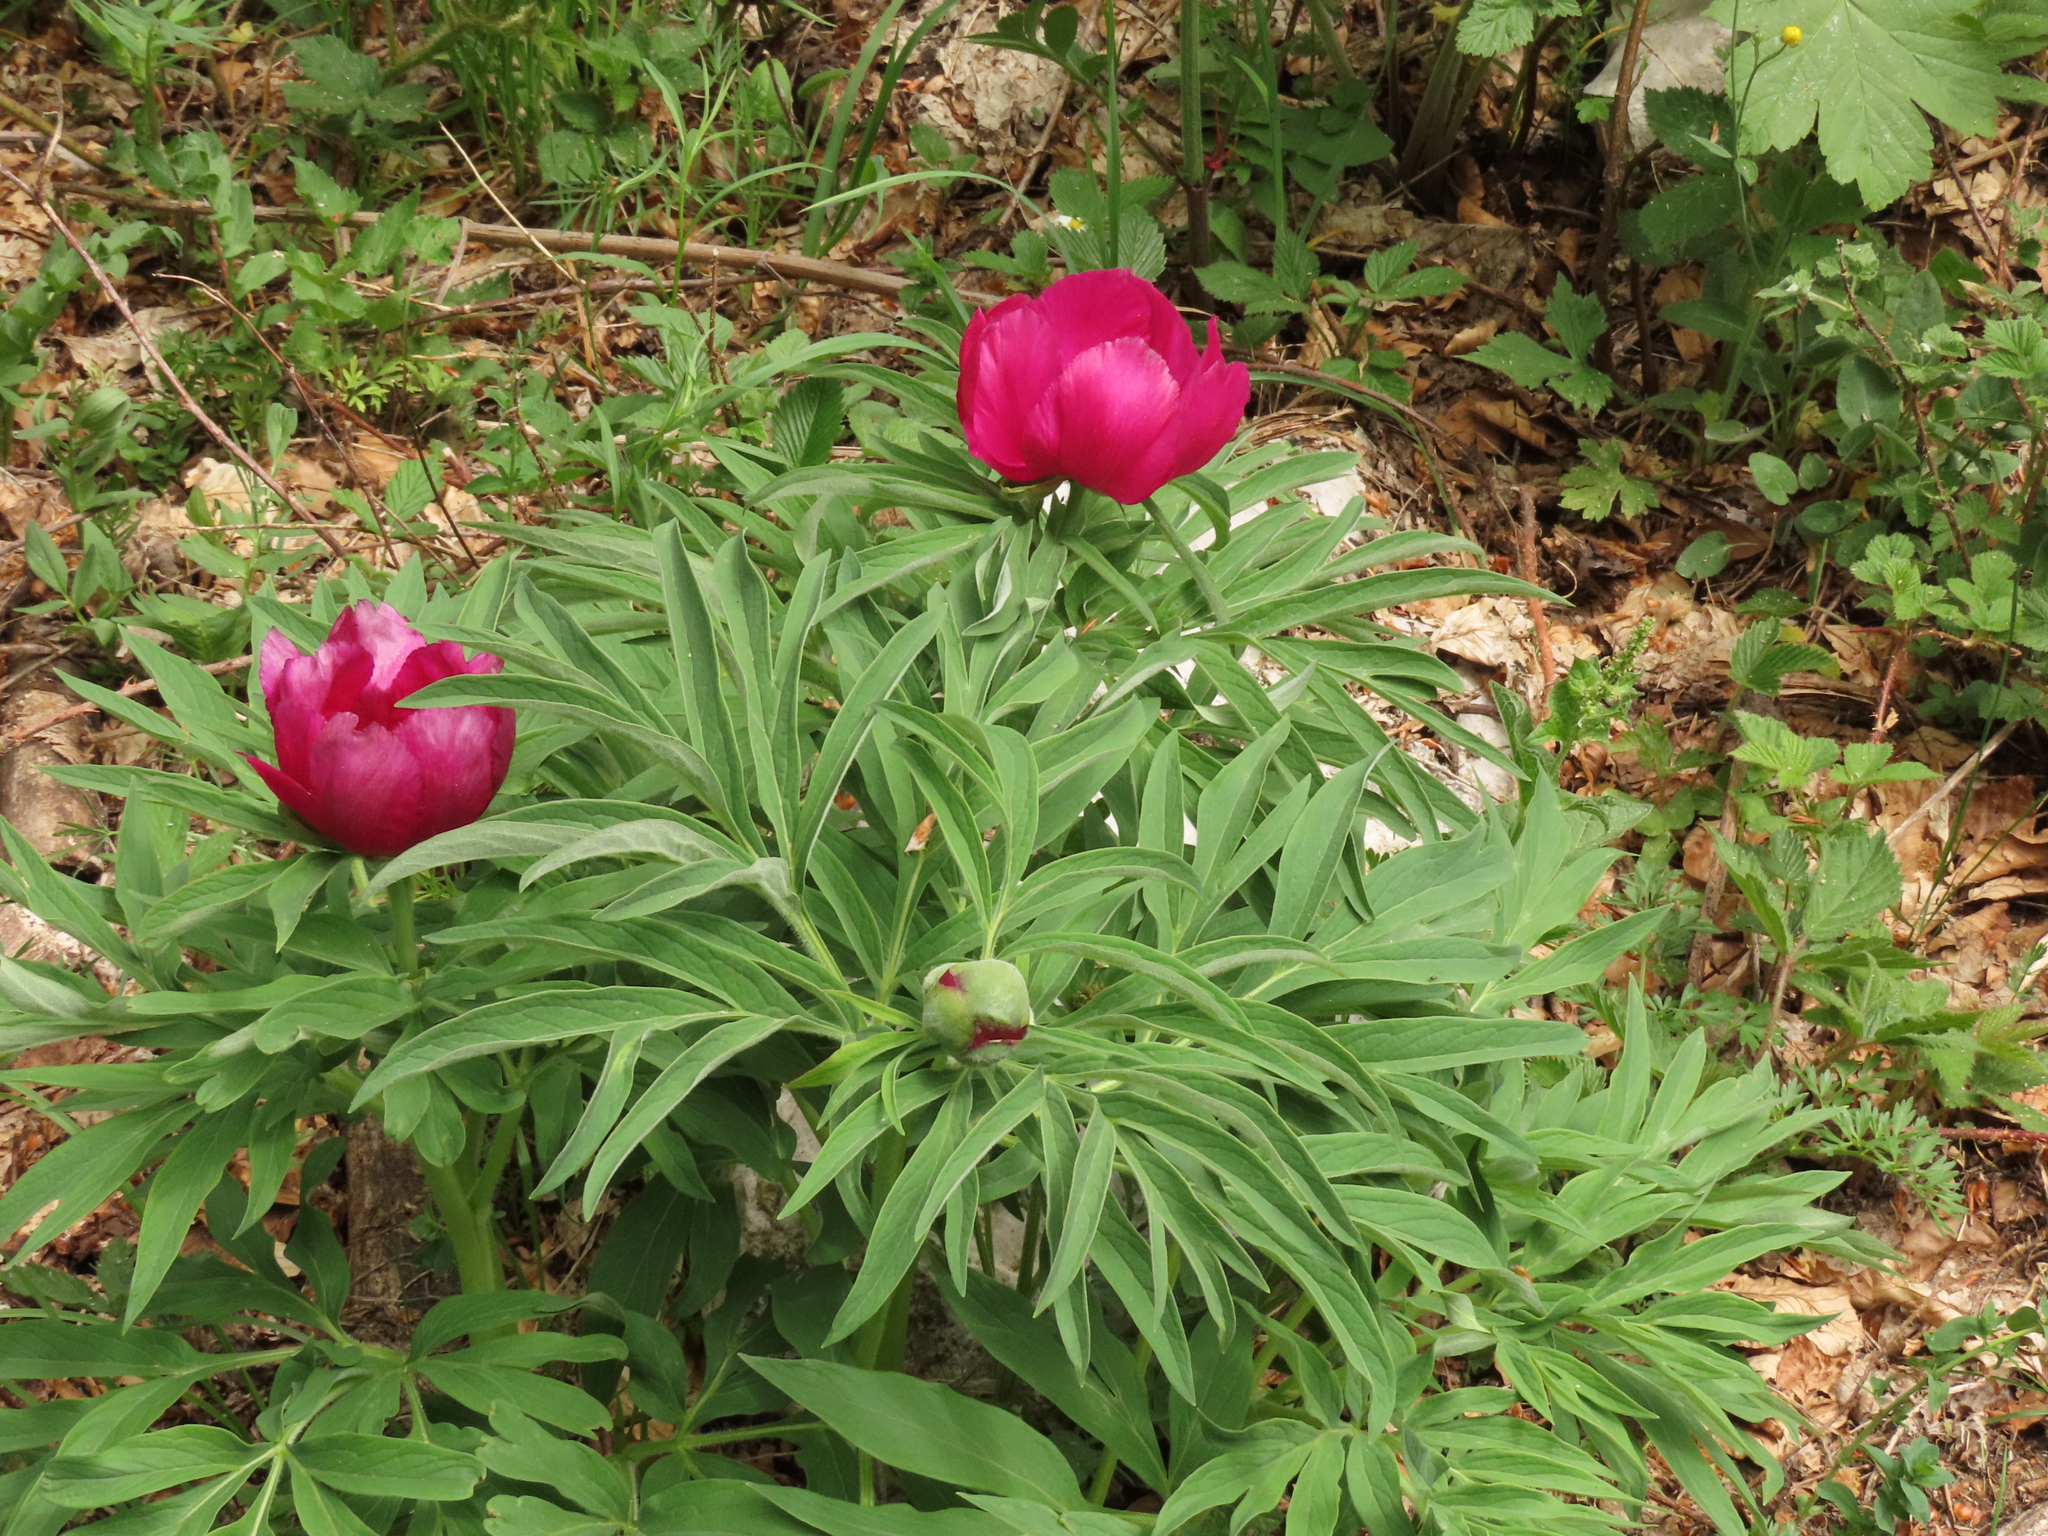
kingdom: Plantae
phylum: Tracheophyta
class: Magnoliopsida
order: Saxifragales
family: Paeoniaceae
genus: Paeonia
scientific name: Paeonia officinalis
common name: Common peony
